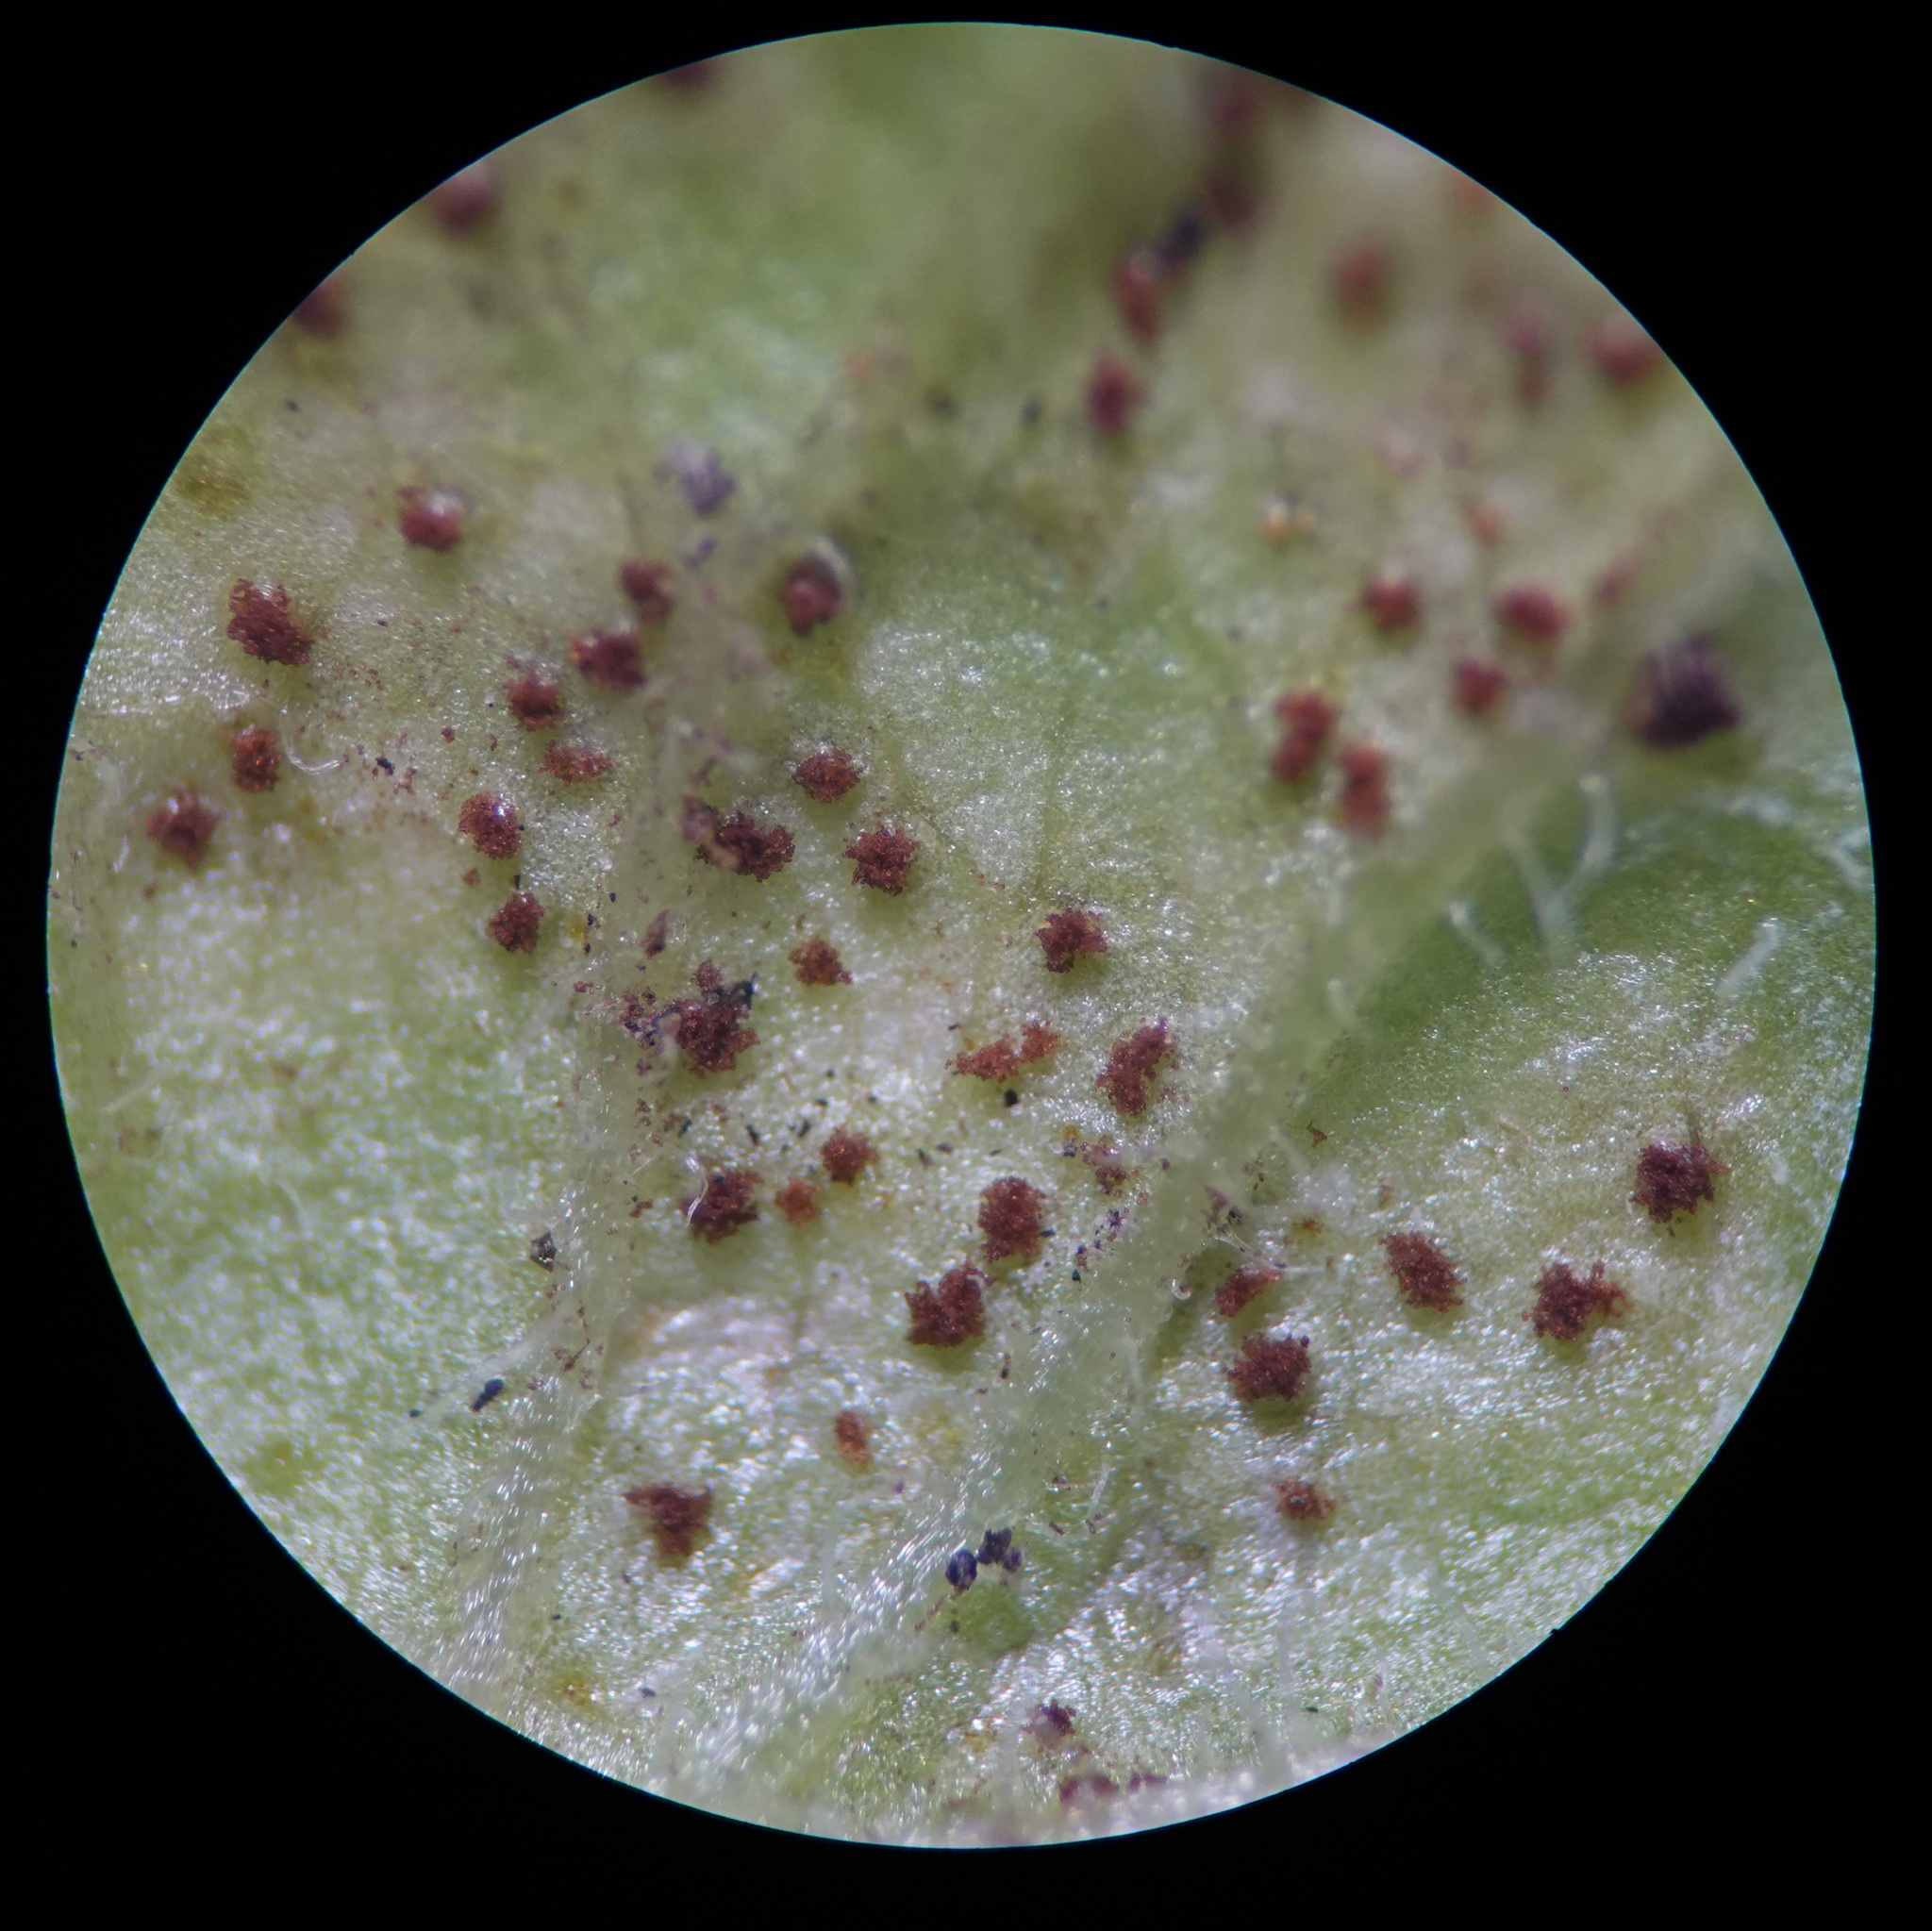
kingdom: Fungi
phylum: Basidiomycota
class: Pucciniomycetes
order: Pucciniales
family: Pucciniaceae
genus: Puccinia
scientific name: Puccinia lapsanae
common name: Nipplewort rust
